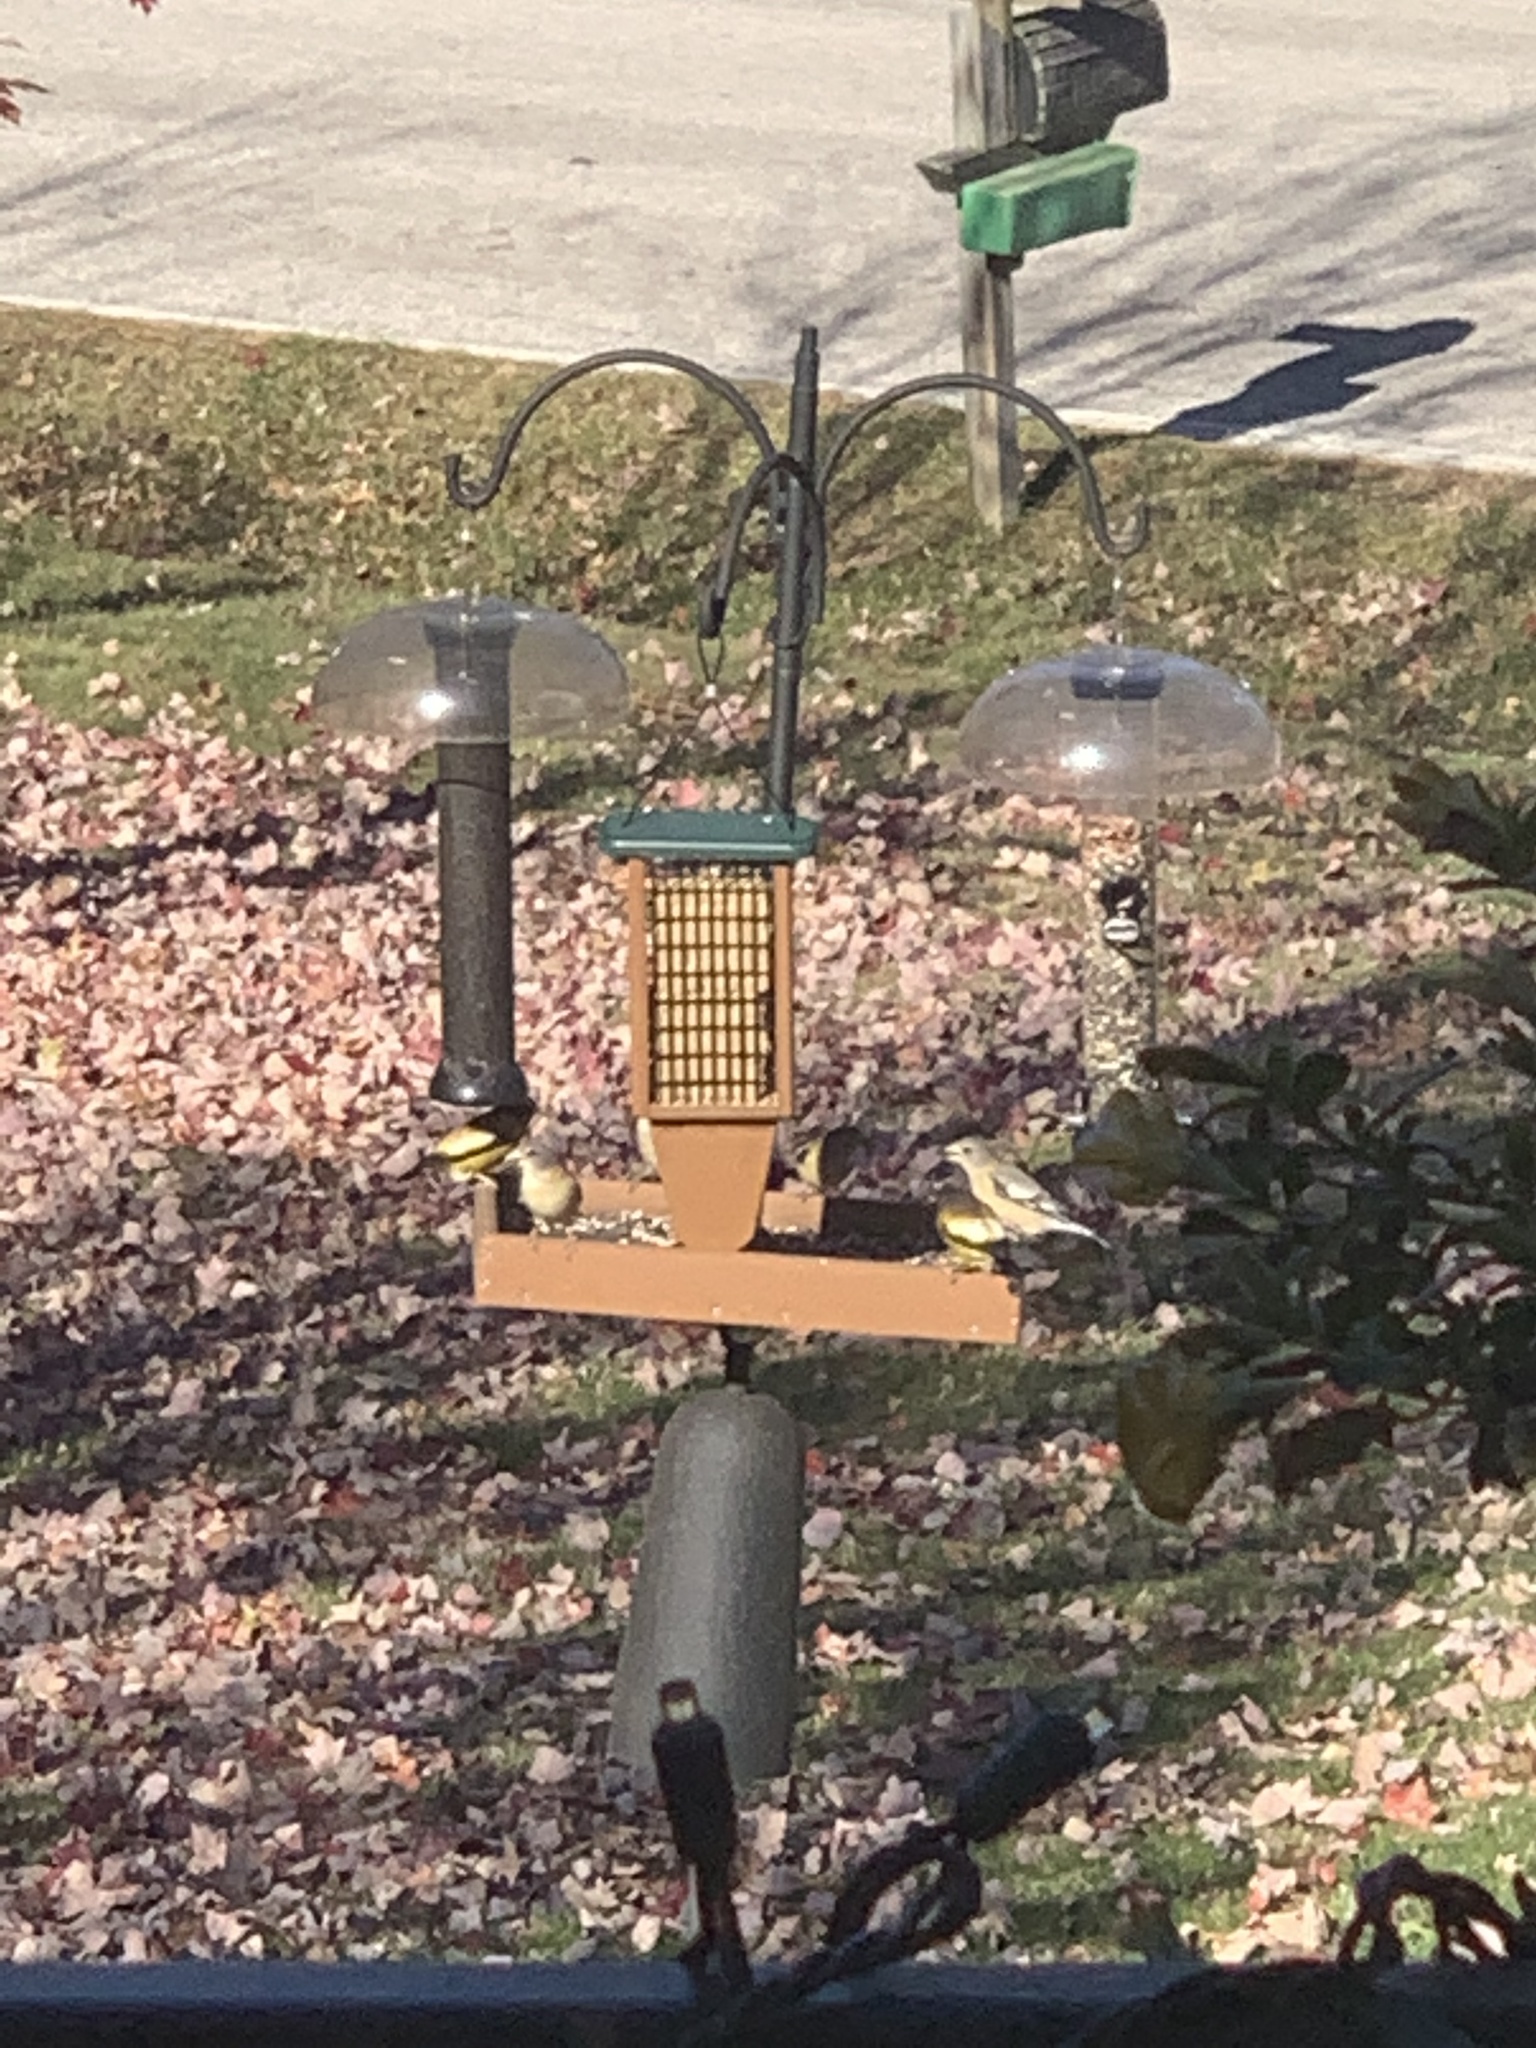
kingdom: Animalia
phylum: Chordata
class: Aves
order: Passeriformes
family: Fringillidae
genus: Hesperiphona
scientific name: Hesperiphona vespertina
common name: Evening grosbeak
